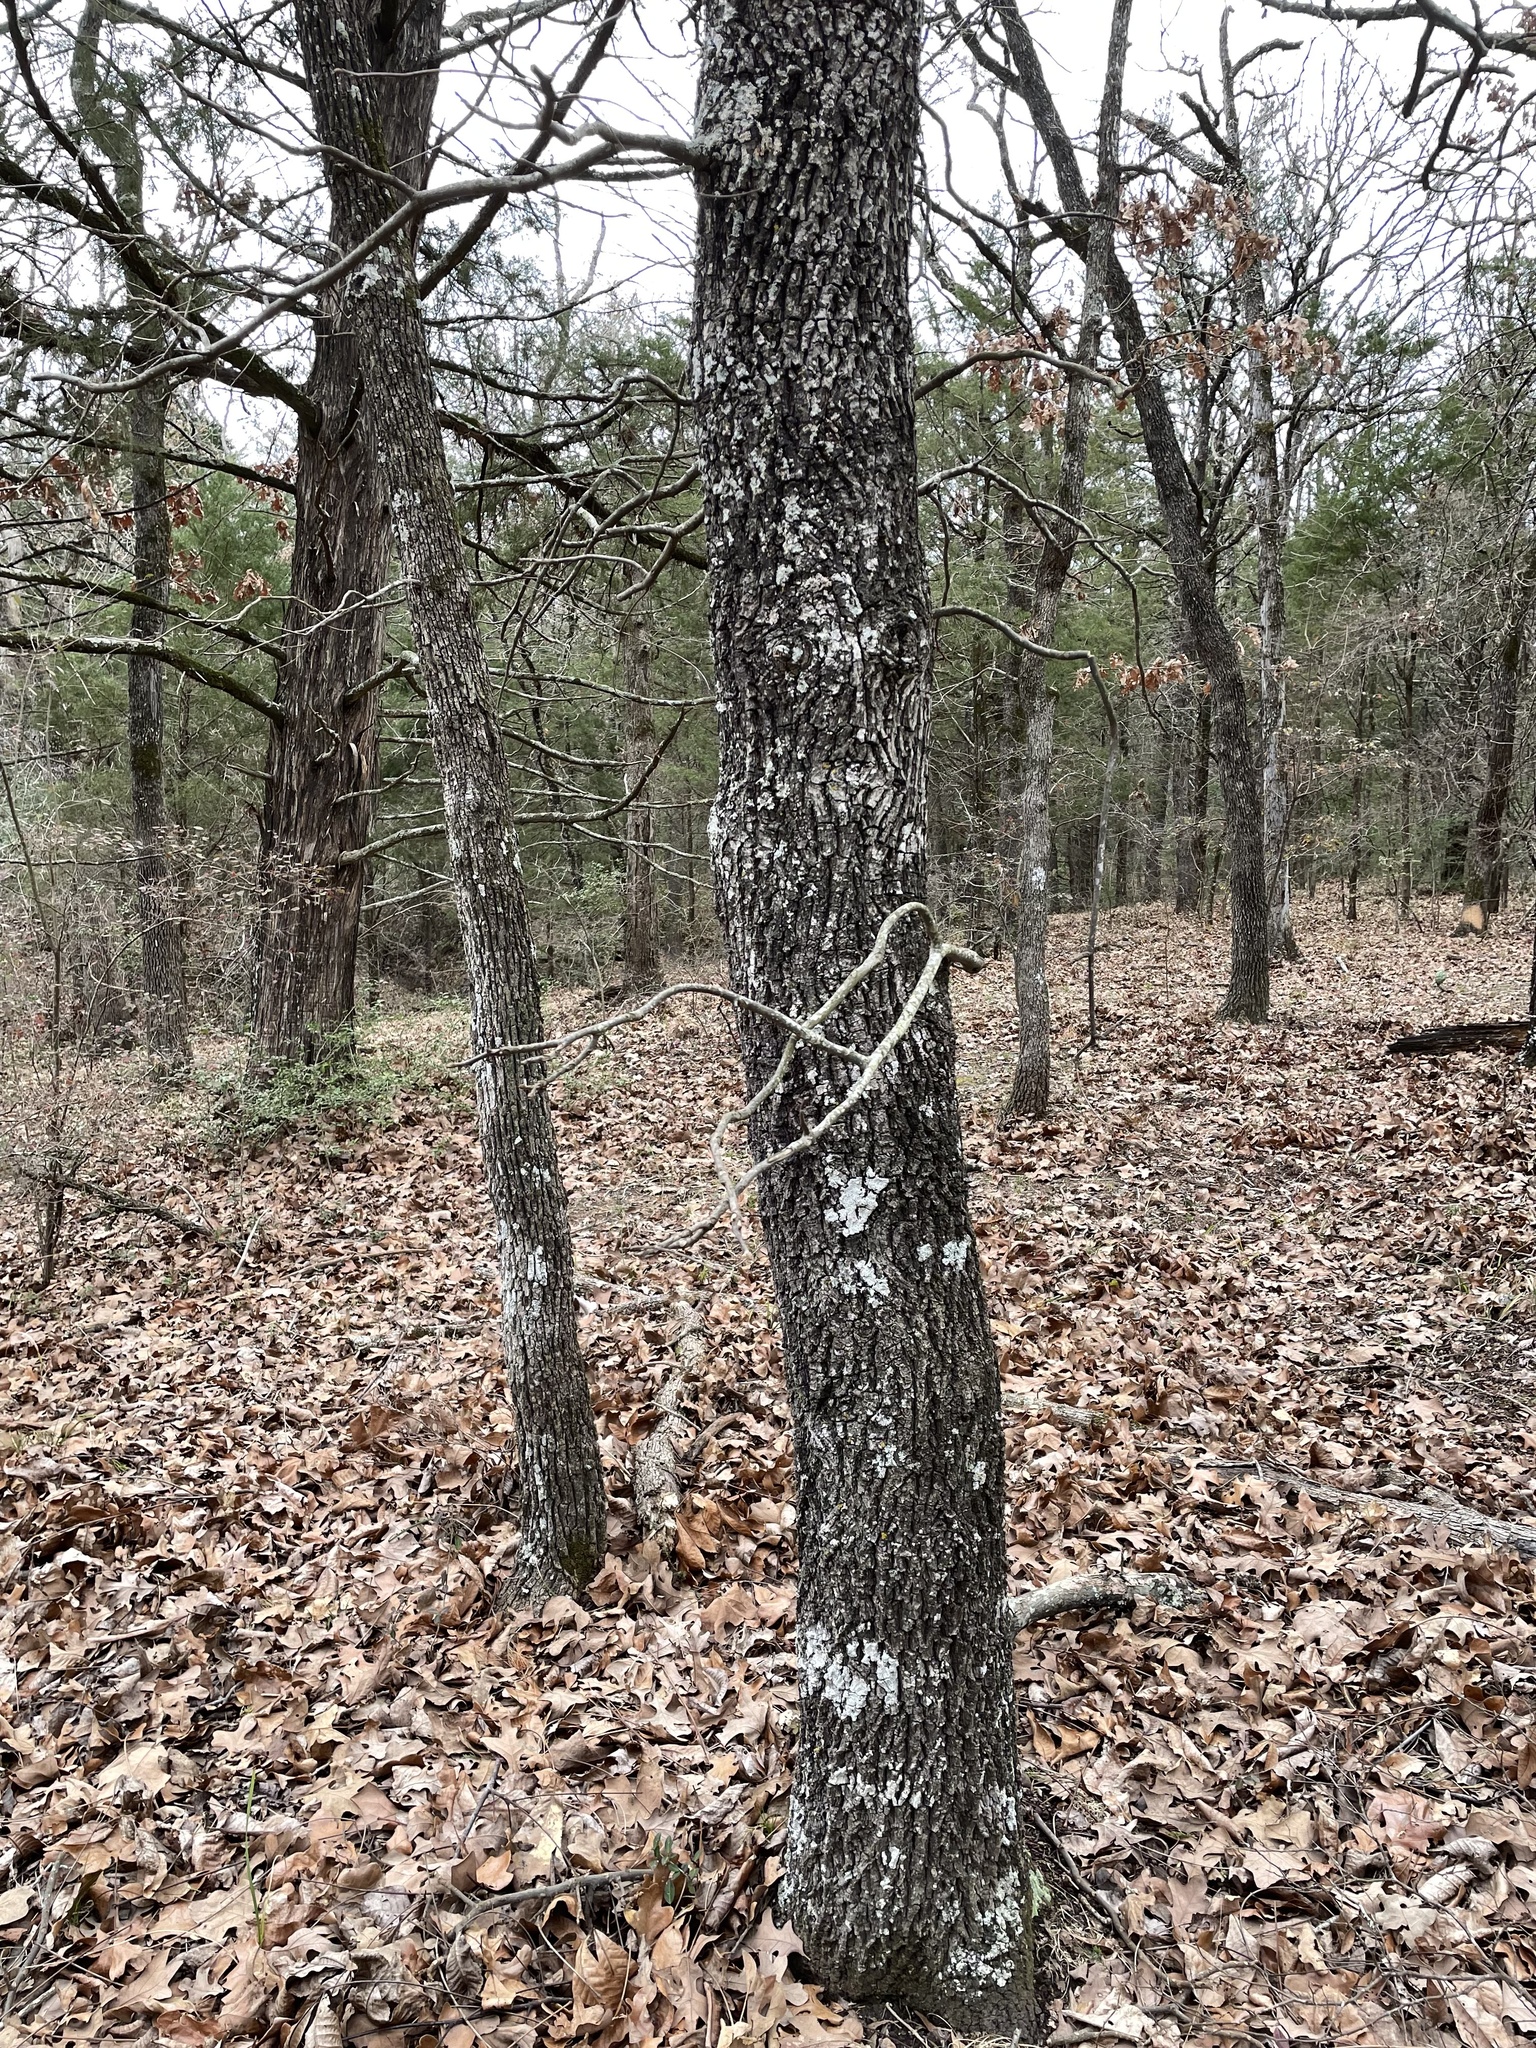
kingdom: Plantae
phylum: Tracheophyta
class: Magnoliopsida
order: Fagales
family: Juglandaceae
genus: Carya
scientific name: Carya texana
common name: Black hickory
